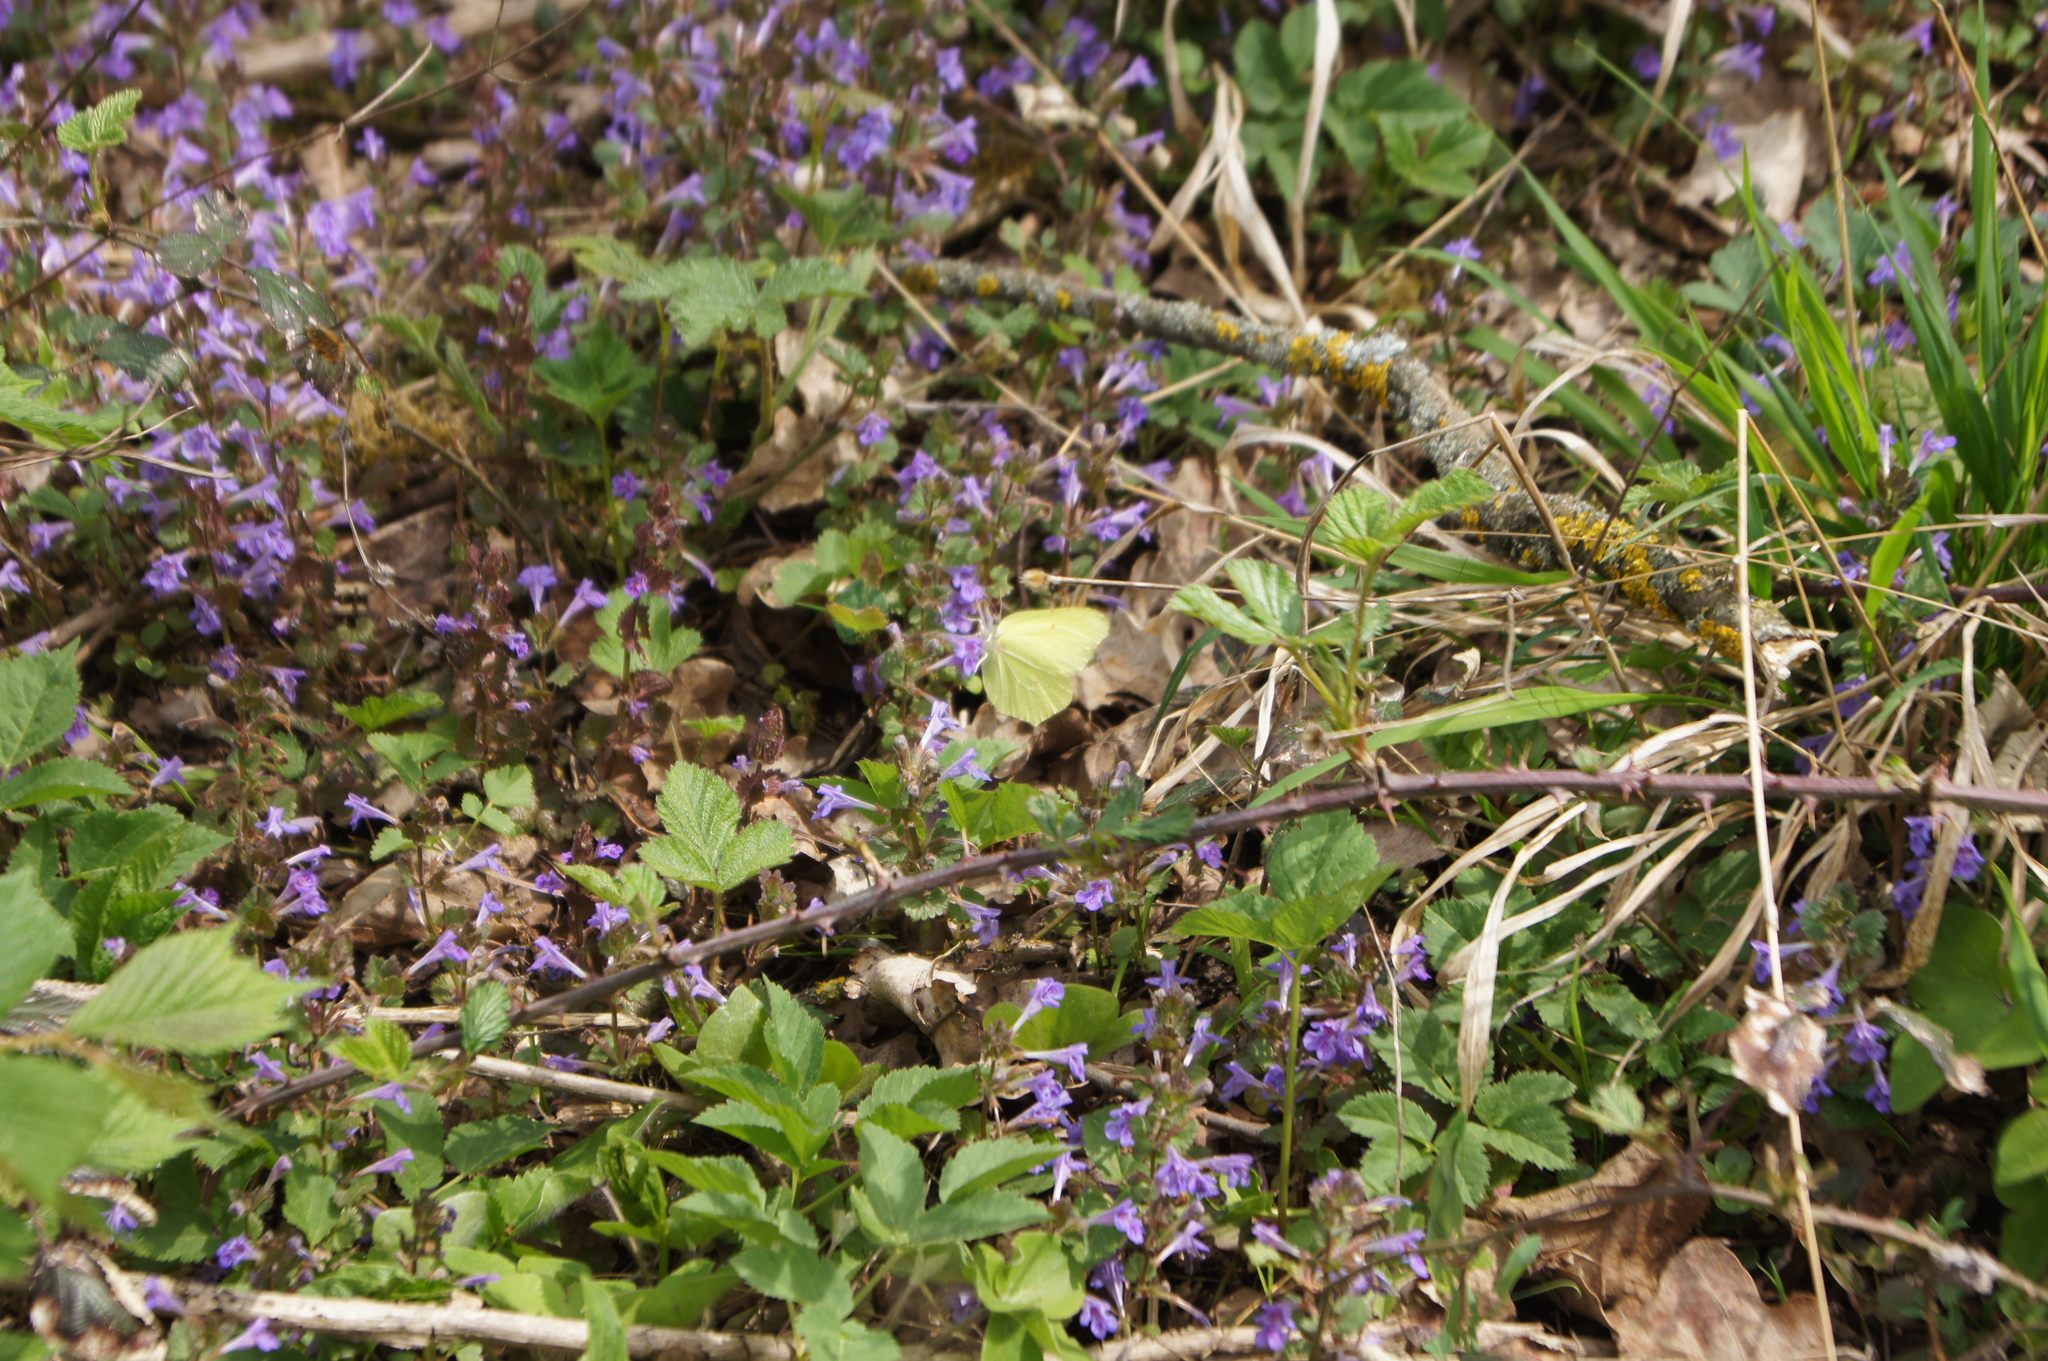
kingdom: Animalia
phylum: Arthropoda
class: Insecta
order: Lepidoptera
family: Pieridae
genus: Gonepteryx
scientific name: Gonepteryx rhamni
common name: Brimstone
